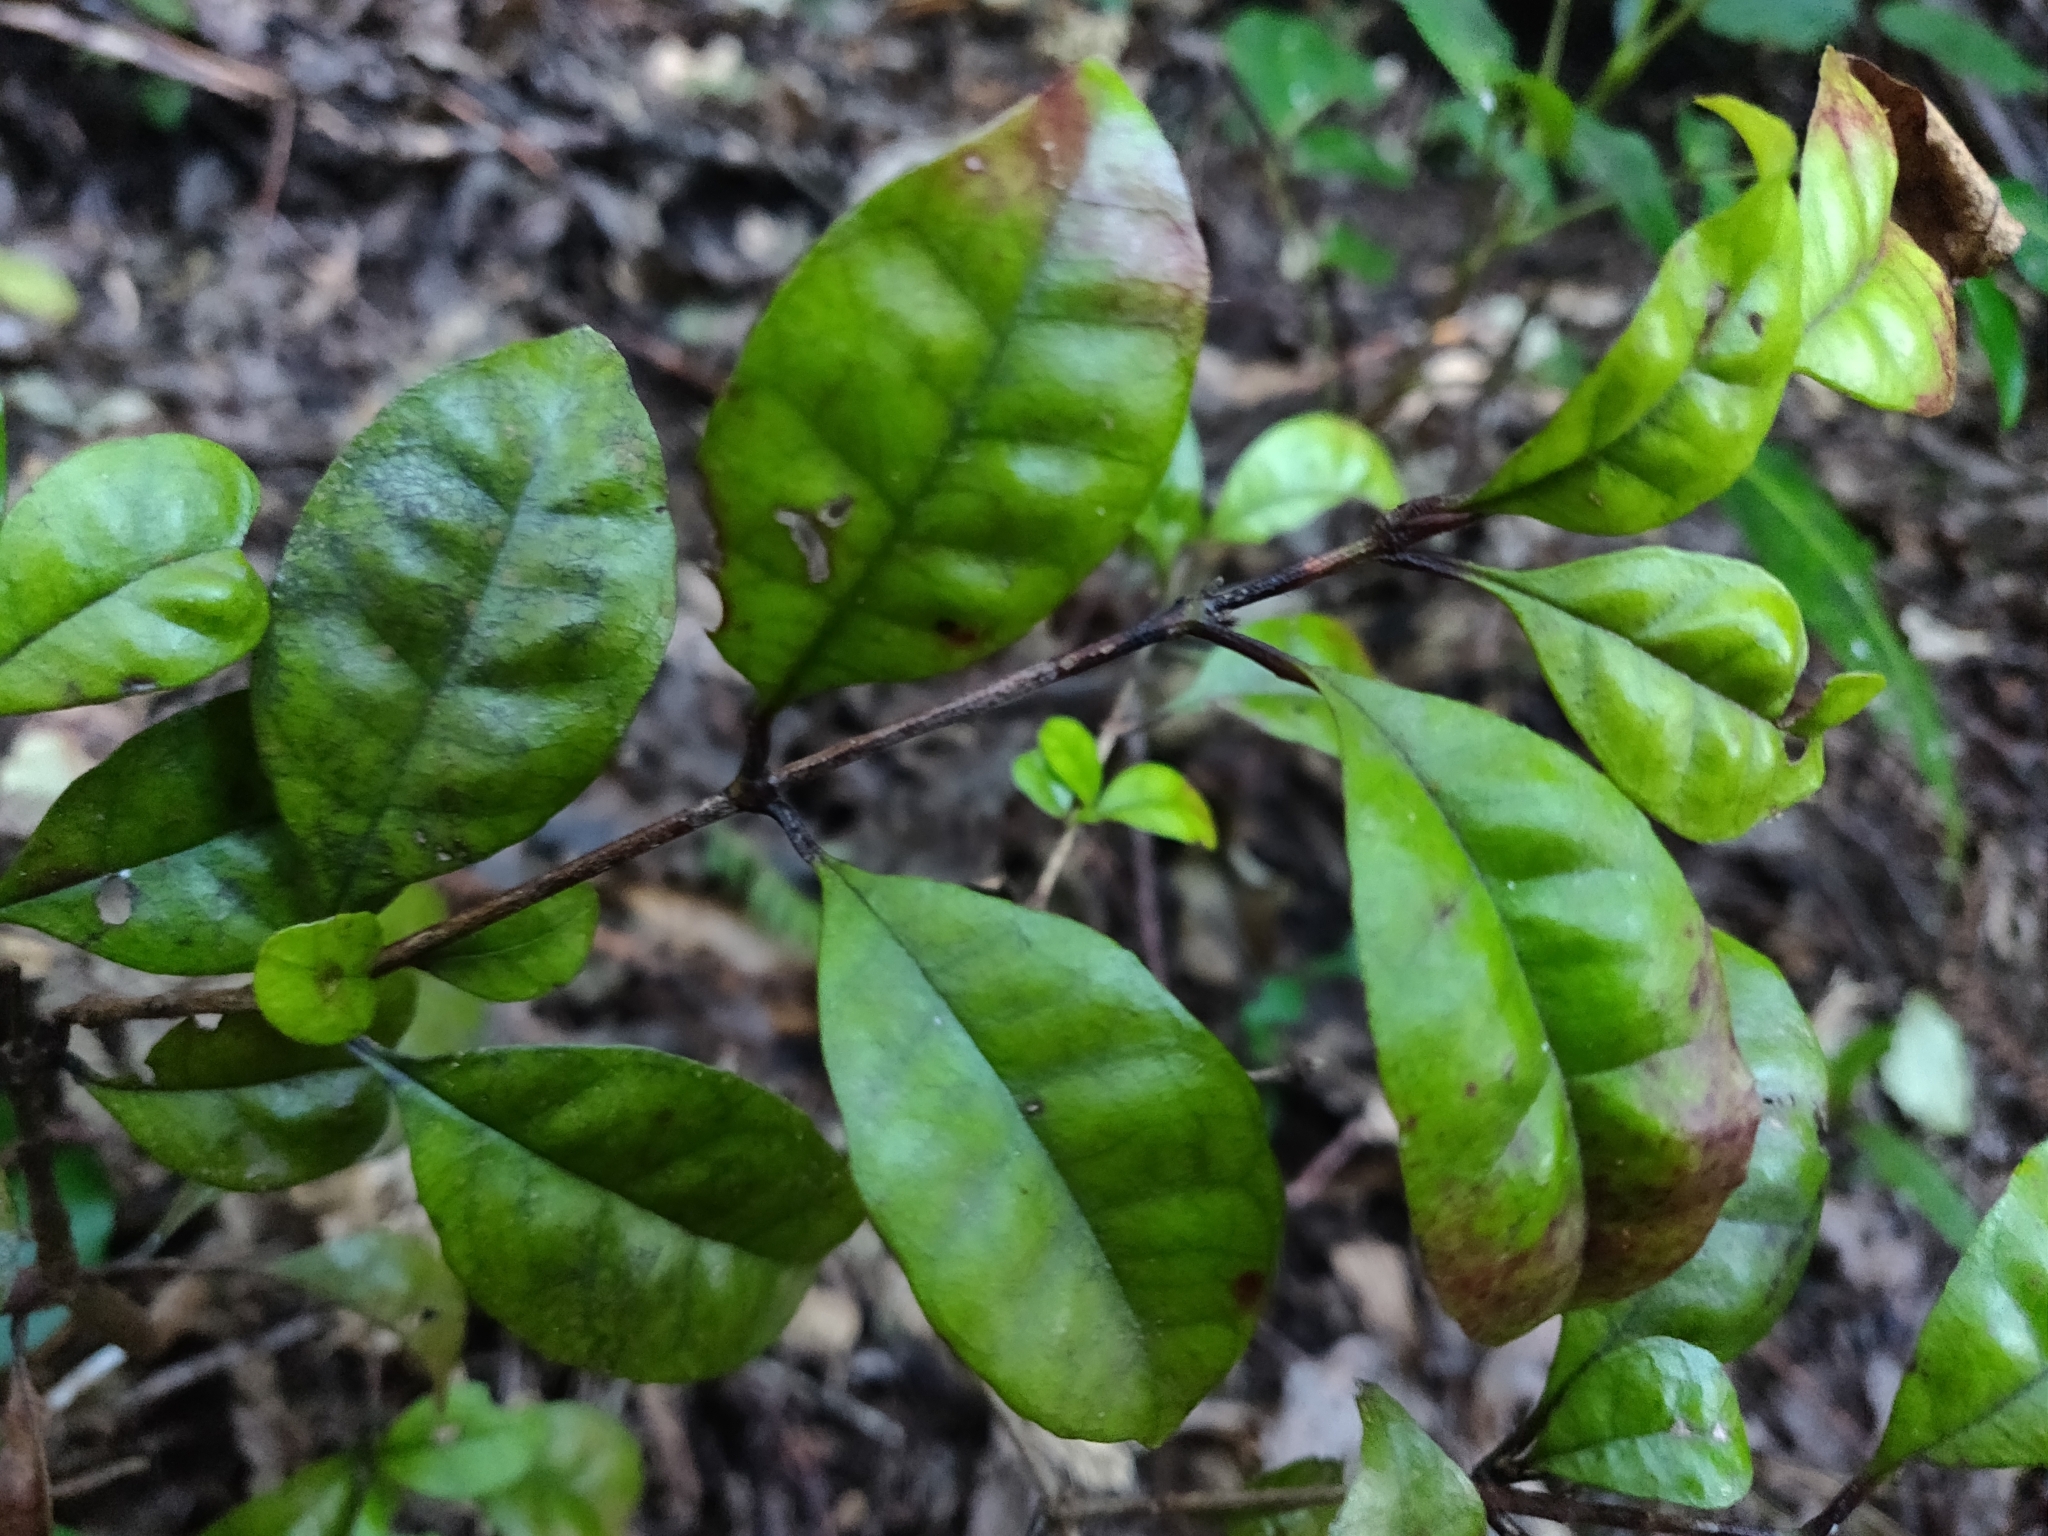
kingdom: Plantae
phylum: Tracheophyta
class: Magnoliopsida
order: Myrtales
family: Myrtaceae
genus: Lophomyrtus
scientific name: Lophomyrtus bullata
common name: Rama rama
